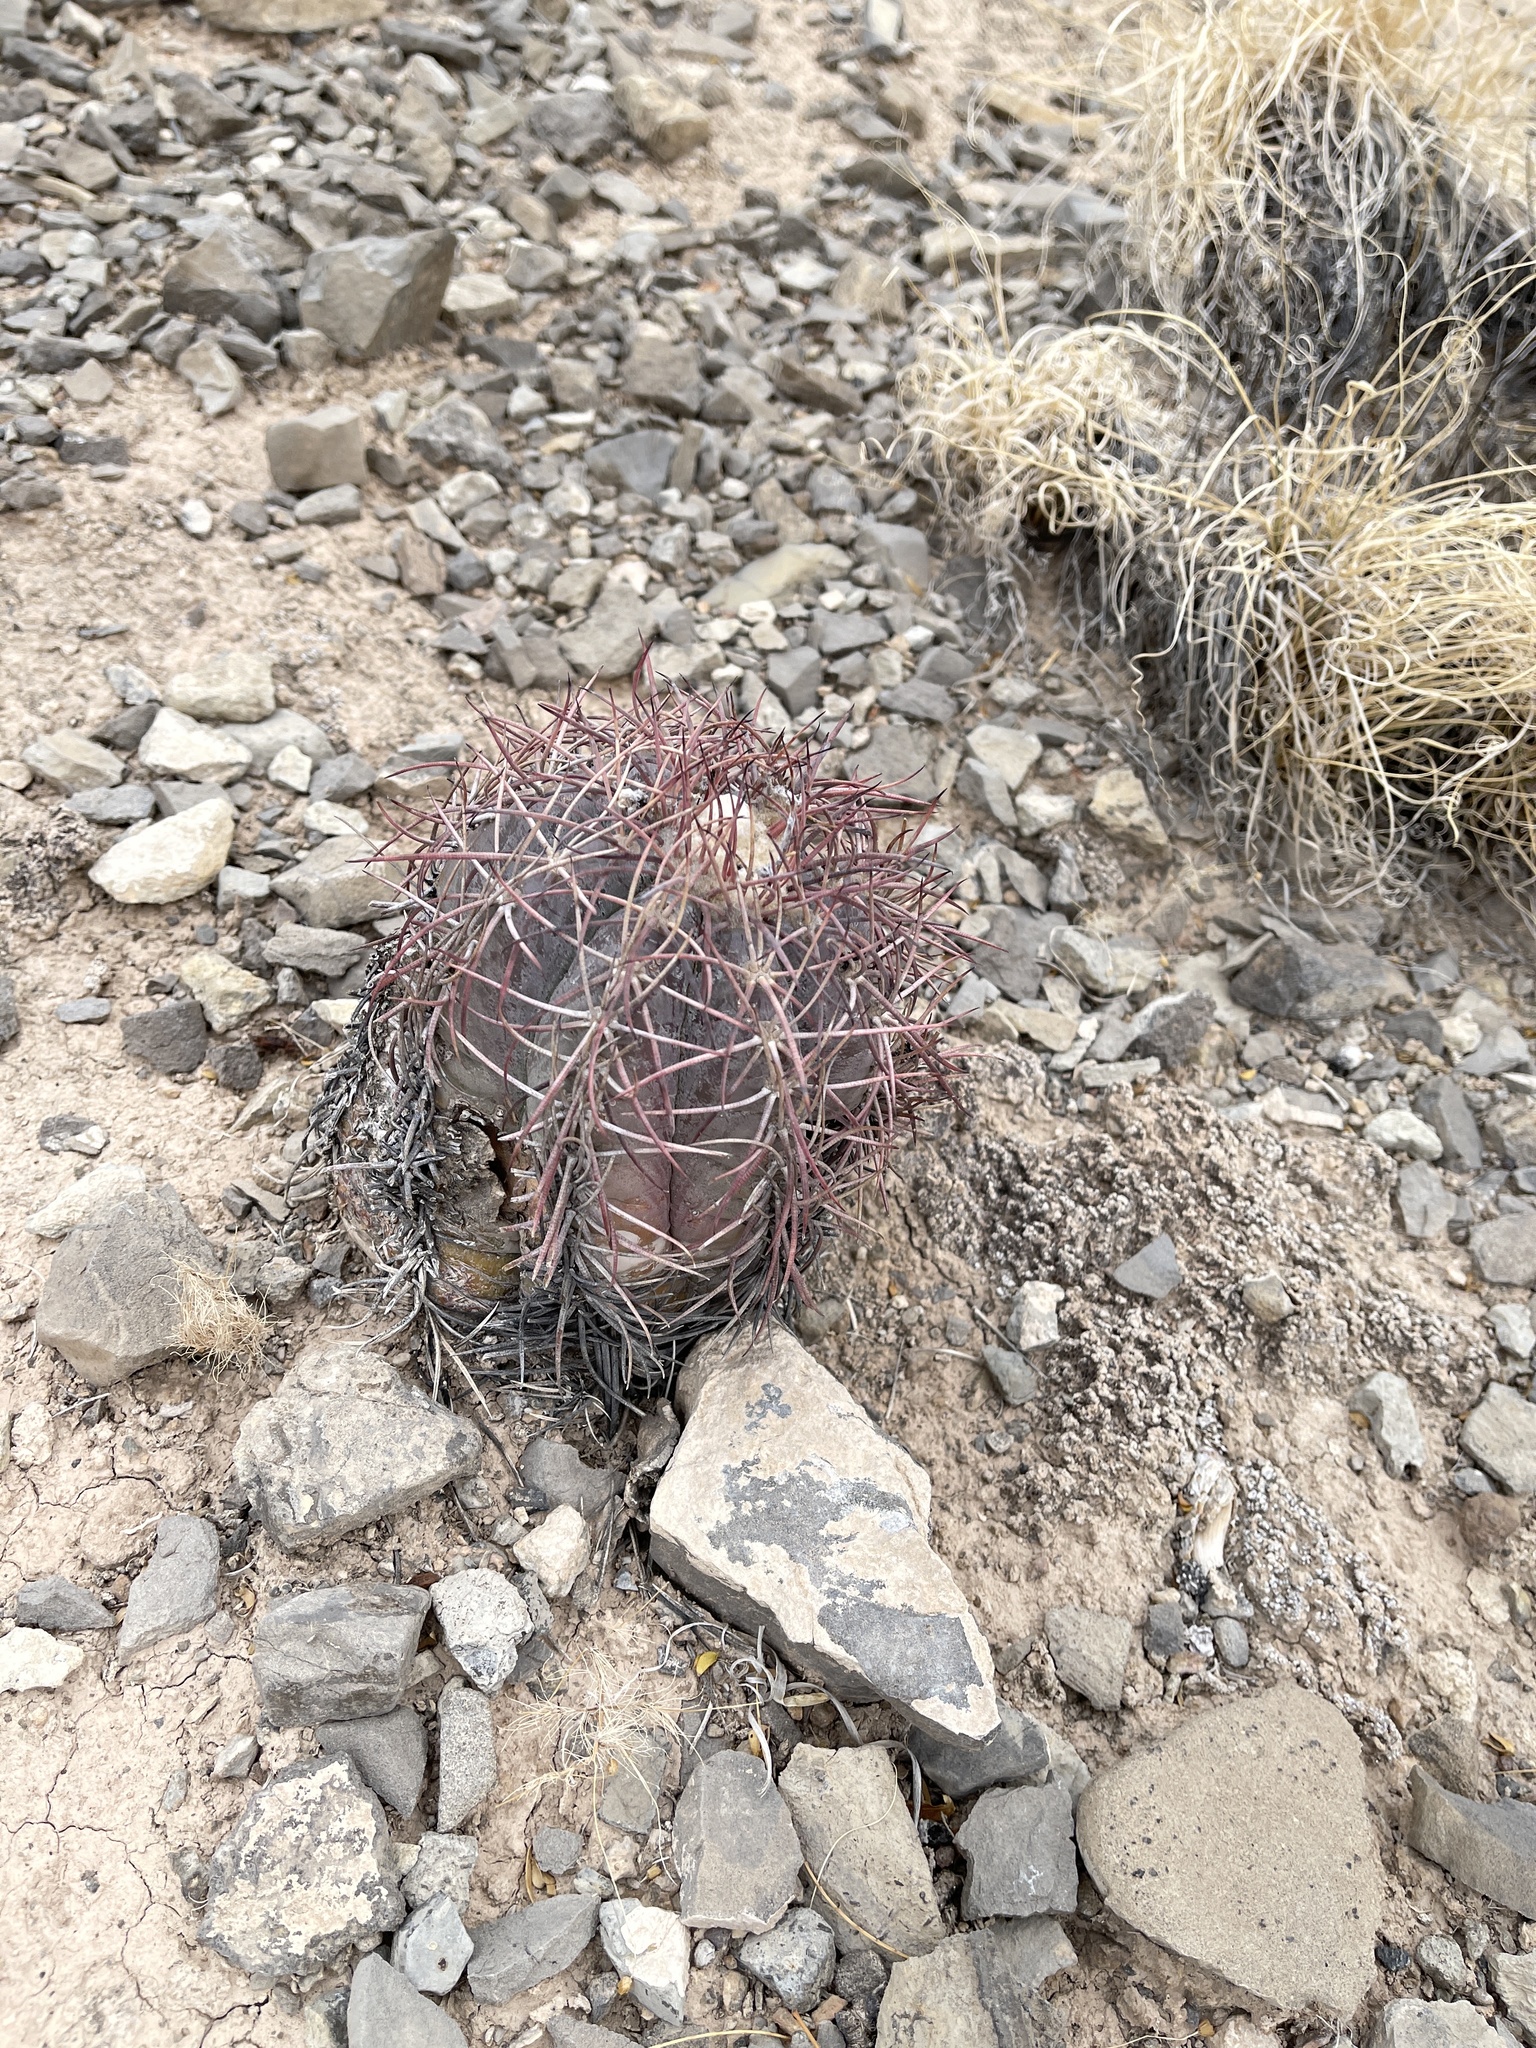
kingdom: Plantae
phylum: Tracheophyta
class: Magnoliopsida
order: Caryophyllales
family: Cactaceae
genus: Echinocactus
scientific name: Echinocactus horizonthalonius
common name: Devilshead
